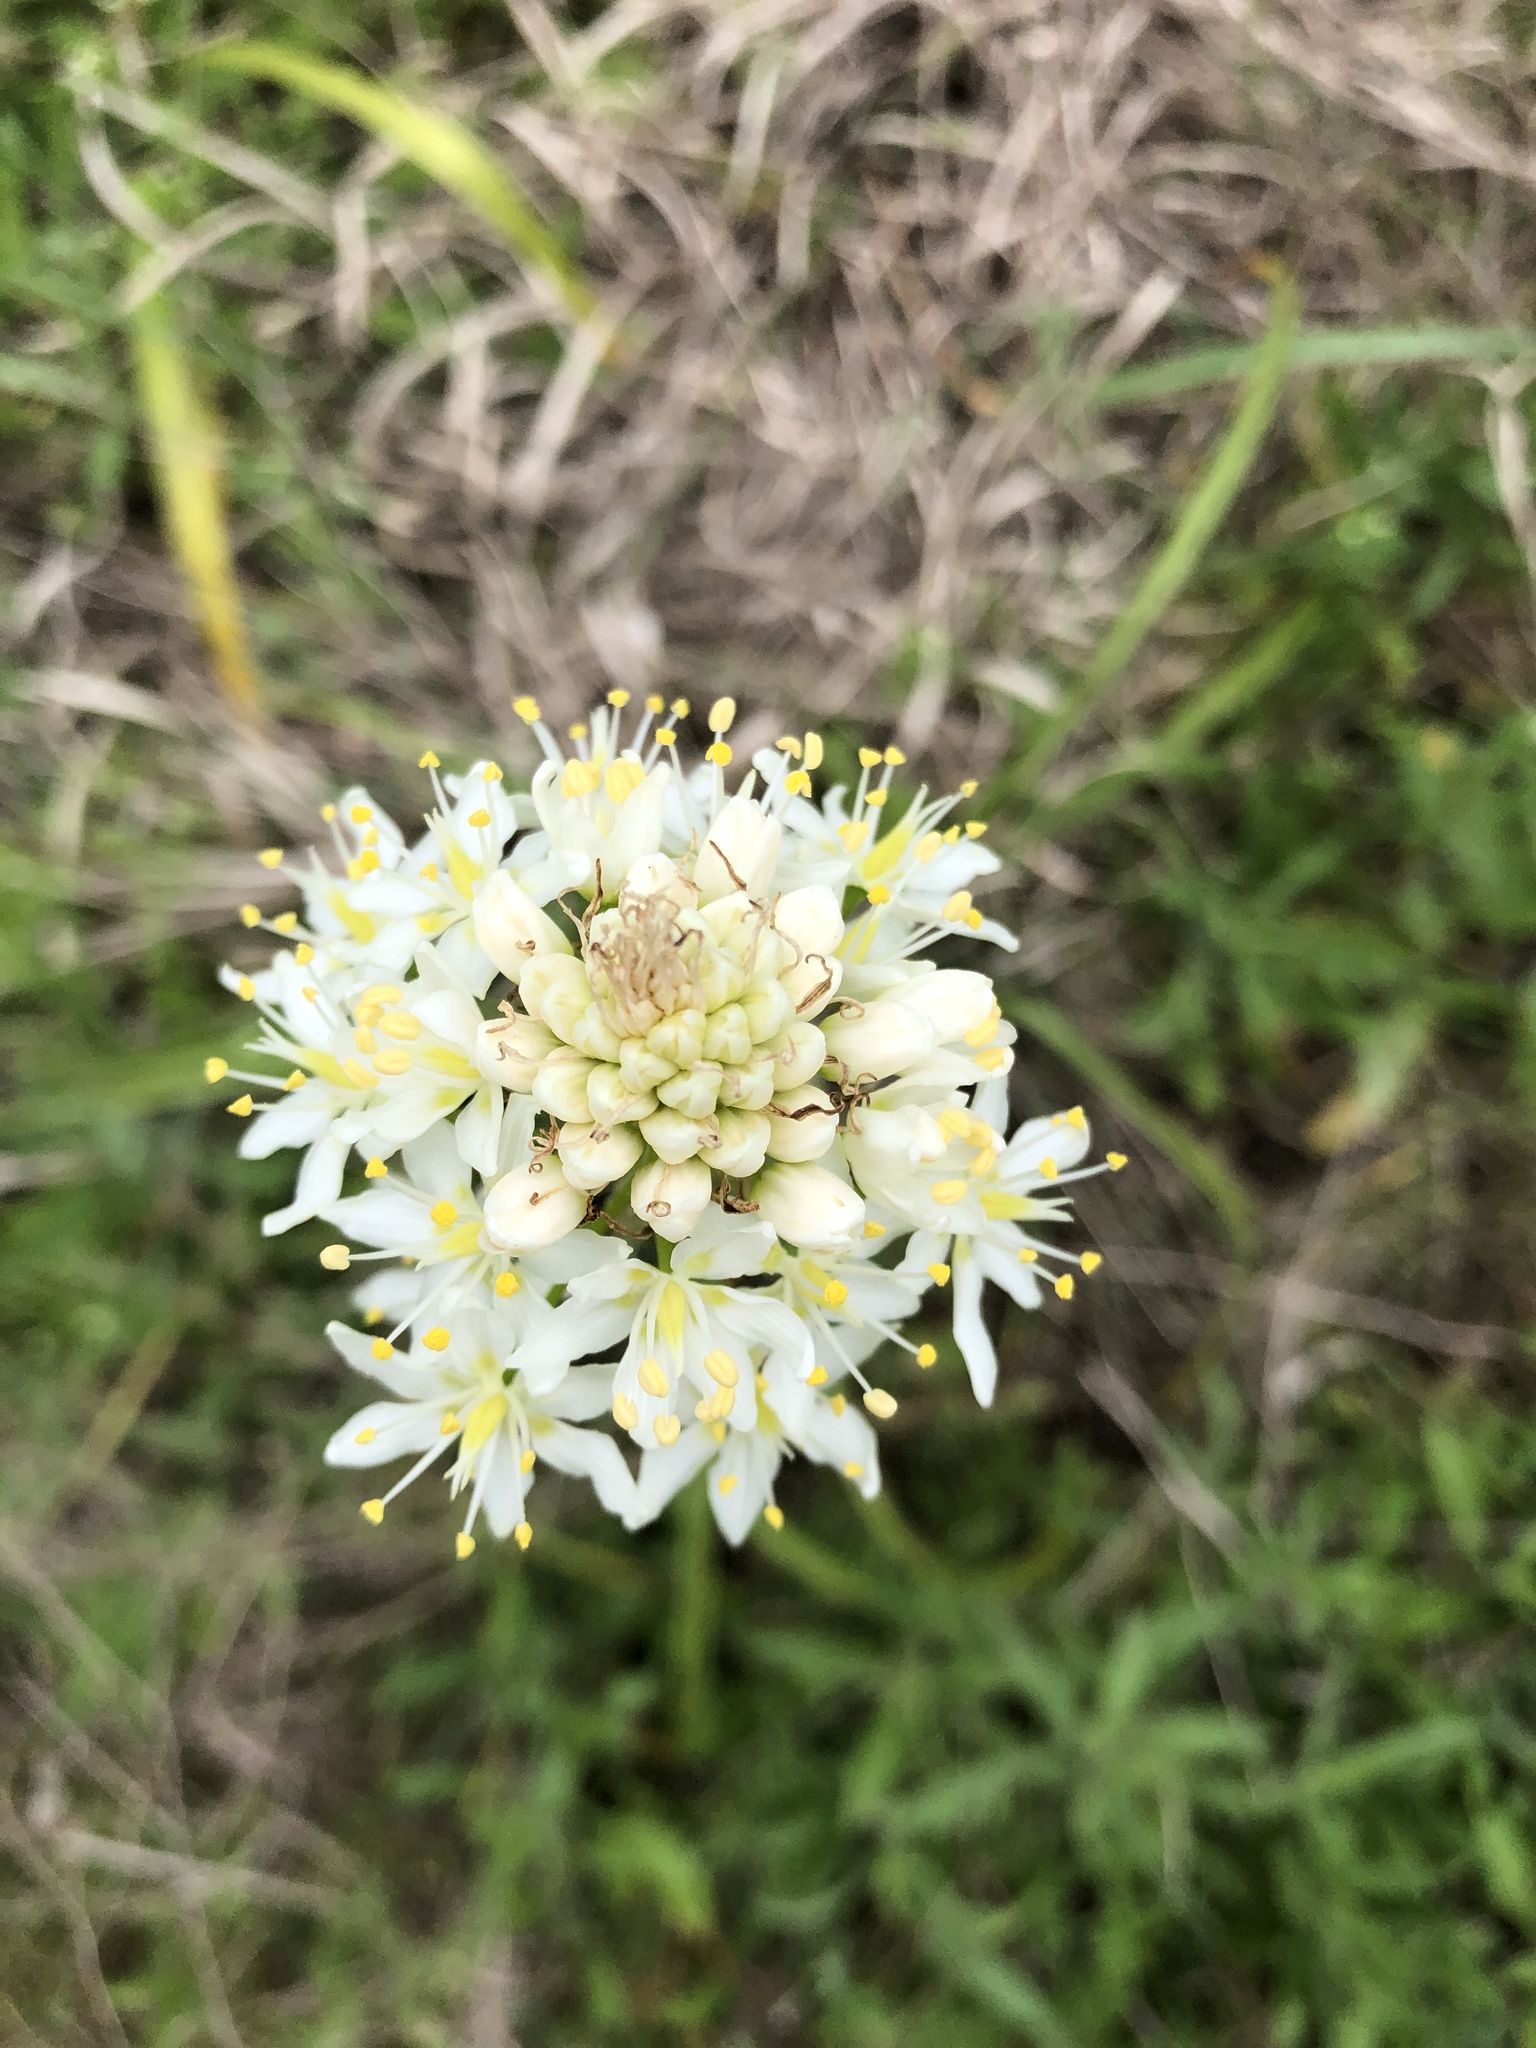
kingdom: Plantae
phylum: Tracheophyta
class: Liliopsida
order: Liliales
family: Melanthiaceae
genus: Toxicoscordion
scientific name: Toxicoscordion nuttallii
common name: Poison sego
